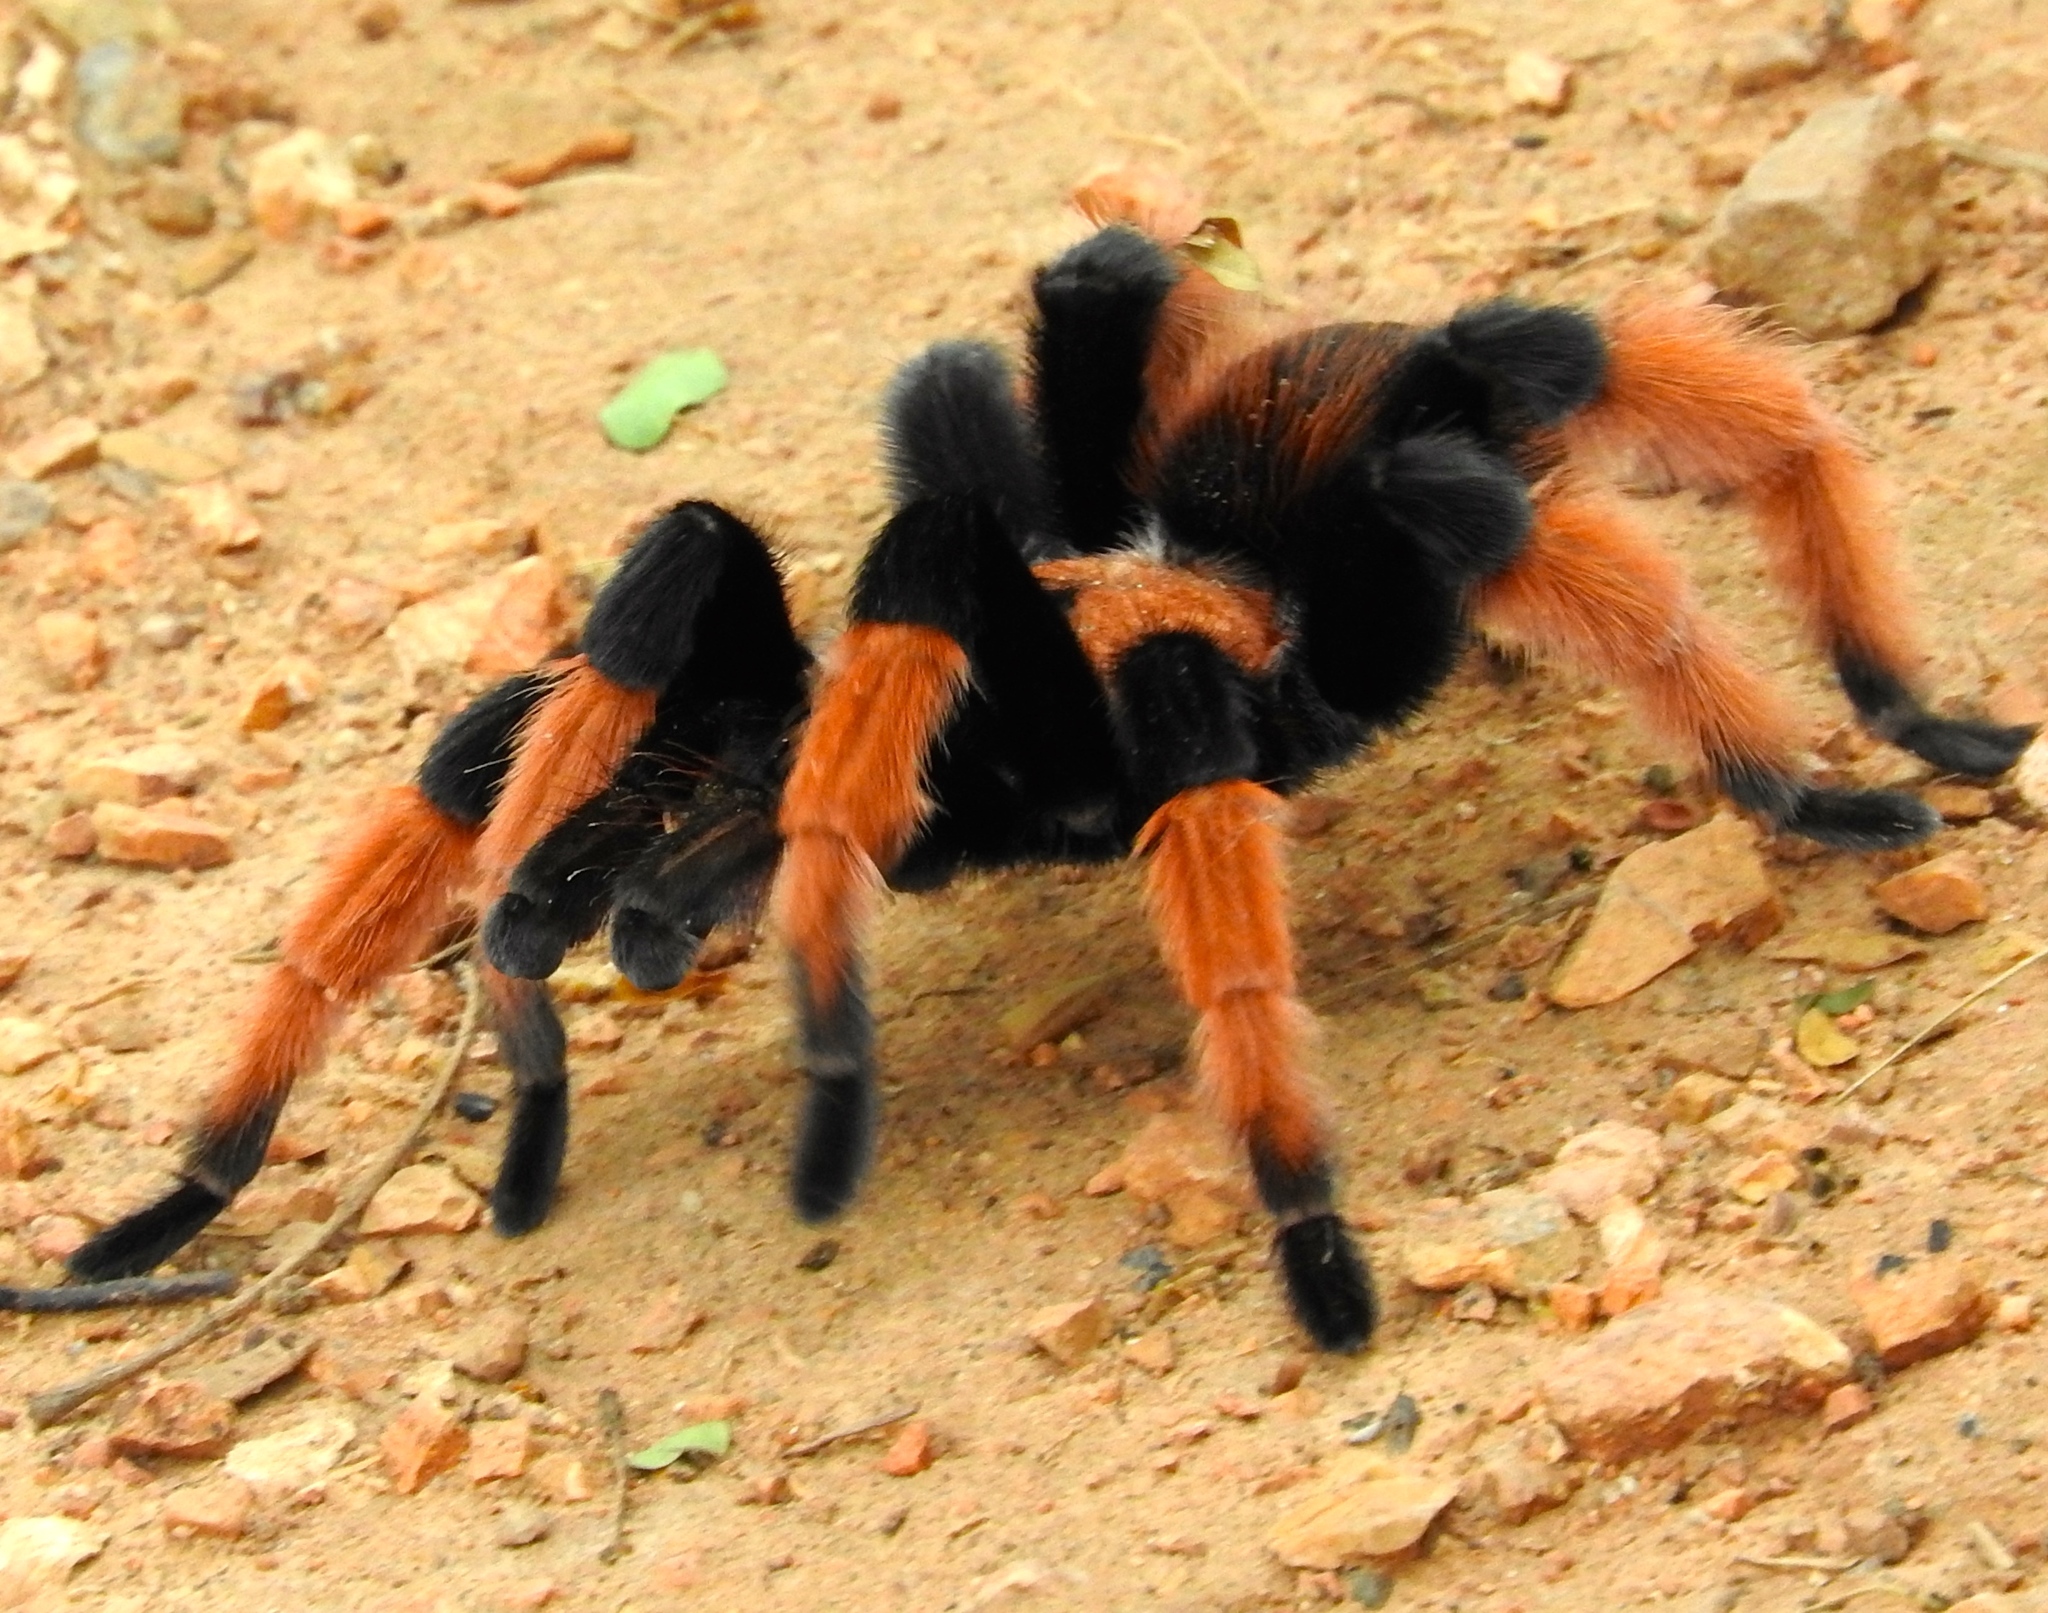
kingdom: Animalia
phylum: Arthropoda
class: Arachnida
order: Araneae
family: Theraphosidae
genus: Brachypelma
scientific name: Brachypelma emilia
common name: Mexican redleg
